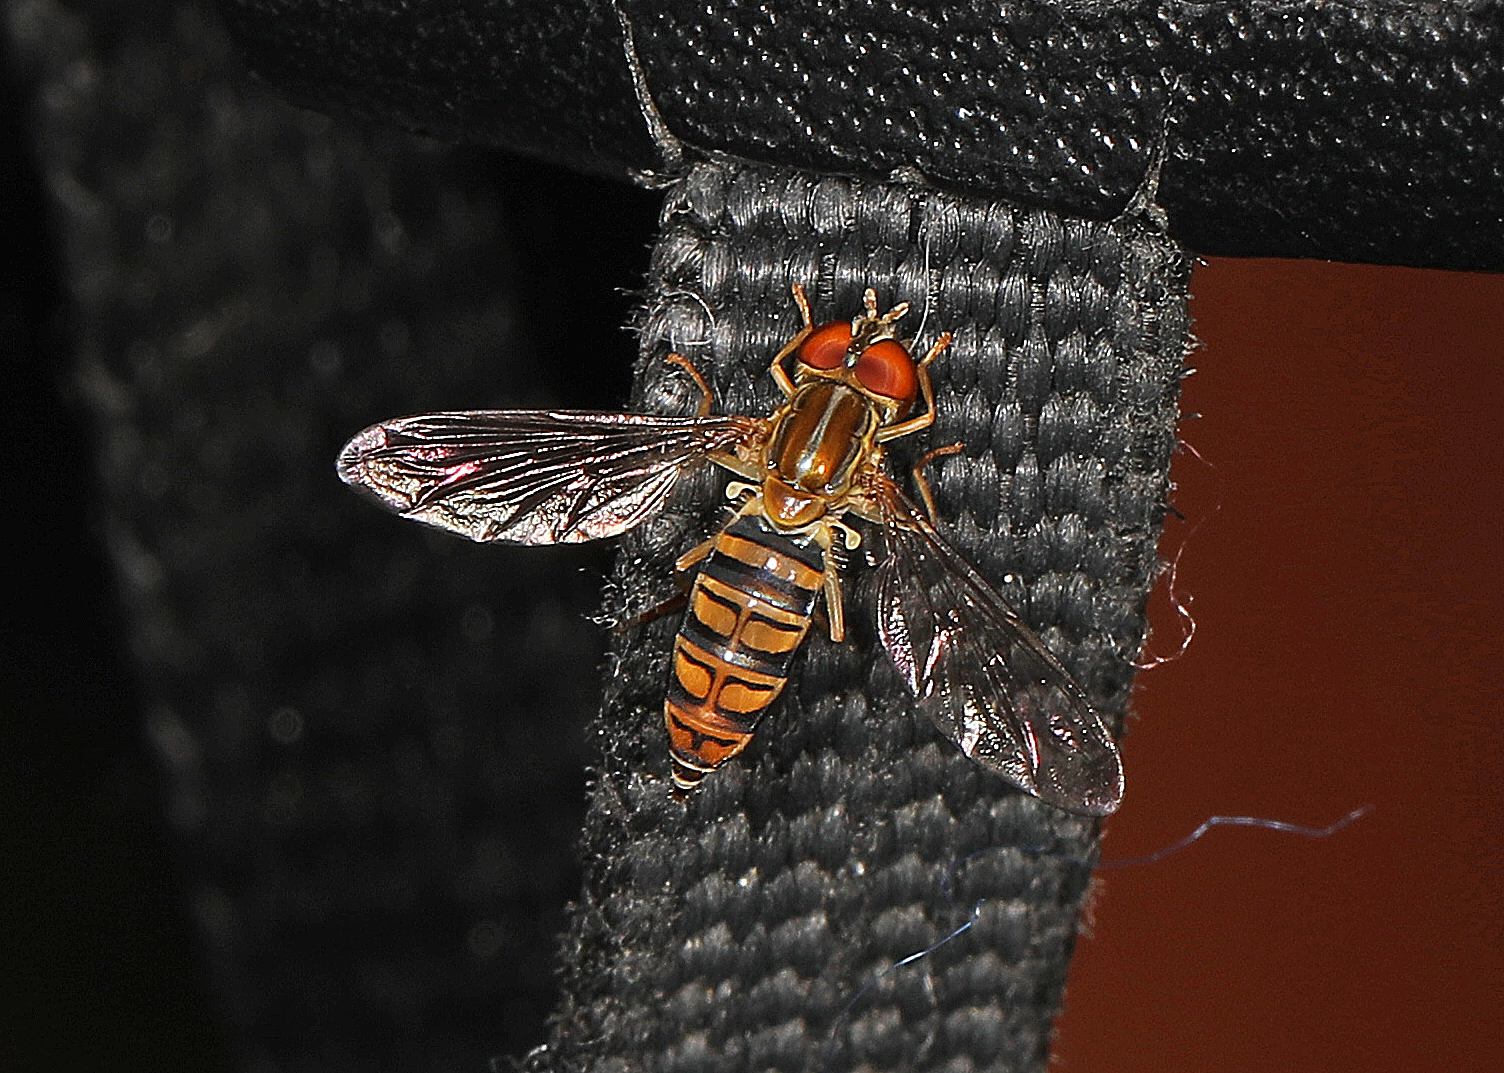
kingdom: Animalia
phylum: Arthropoda
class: Insecta
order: Diptera
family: Syrphidae
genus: Toxomerus
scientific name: Toxomerus politus
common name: Maize calligrapher
